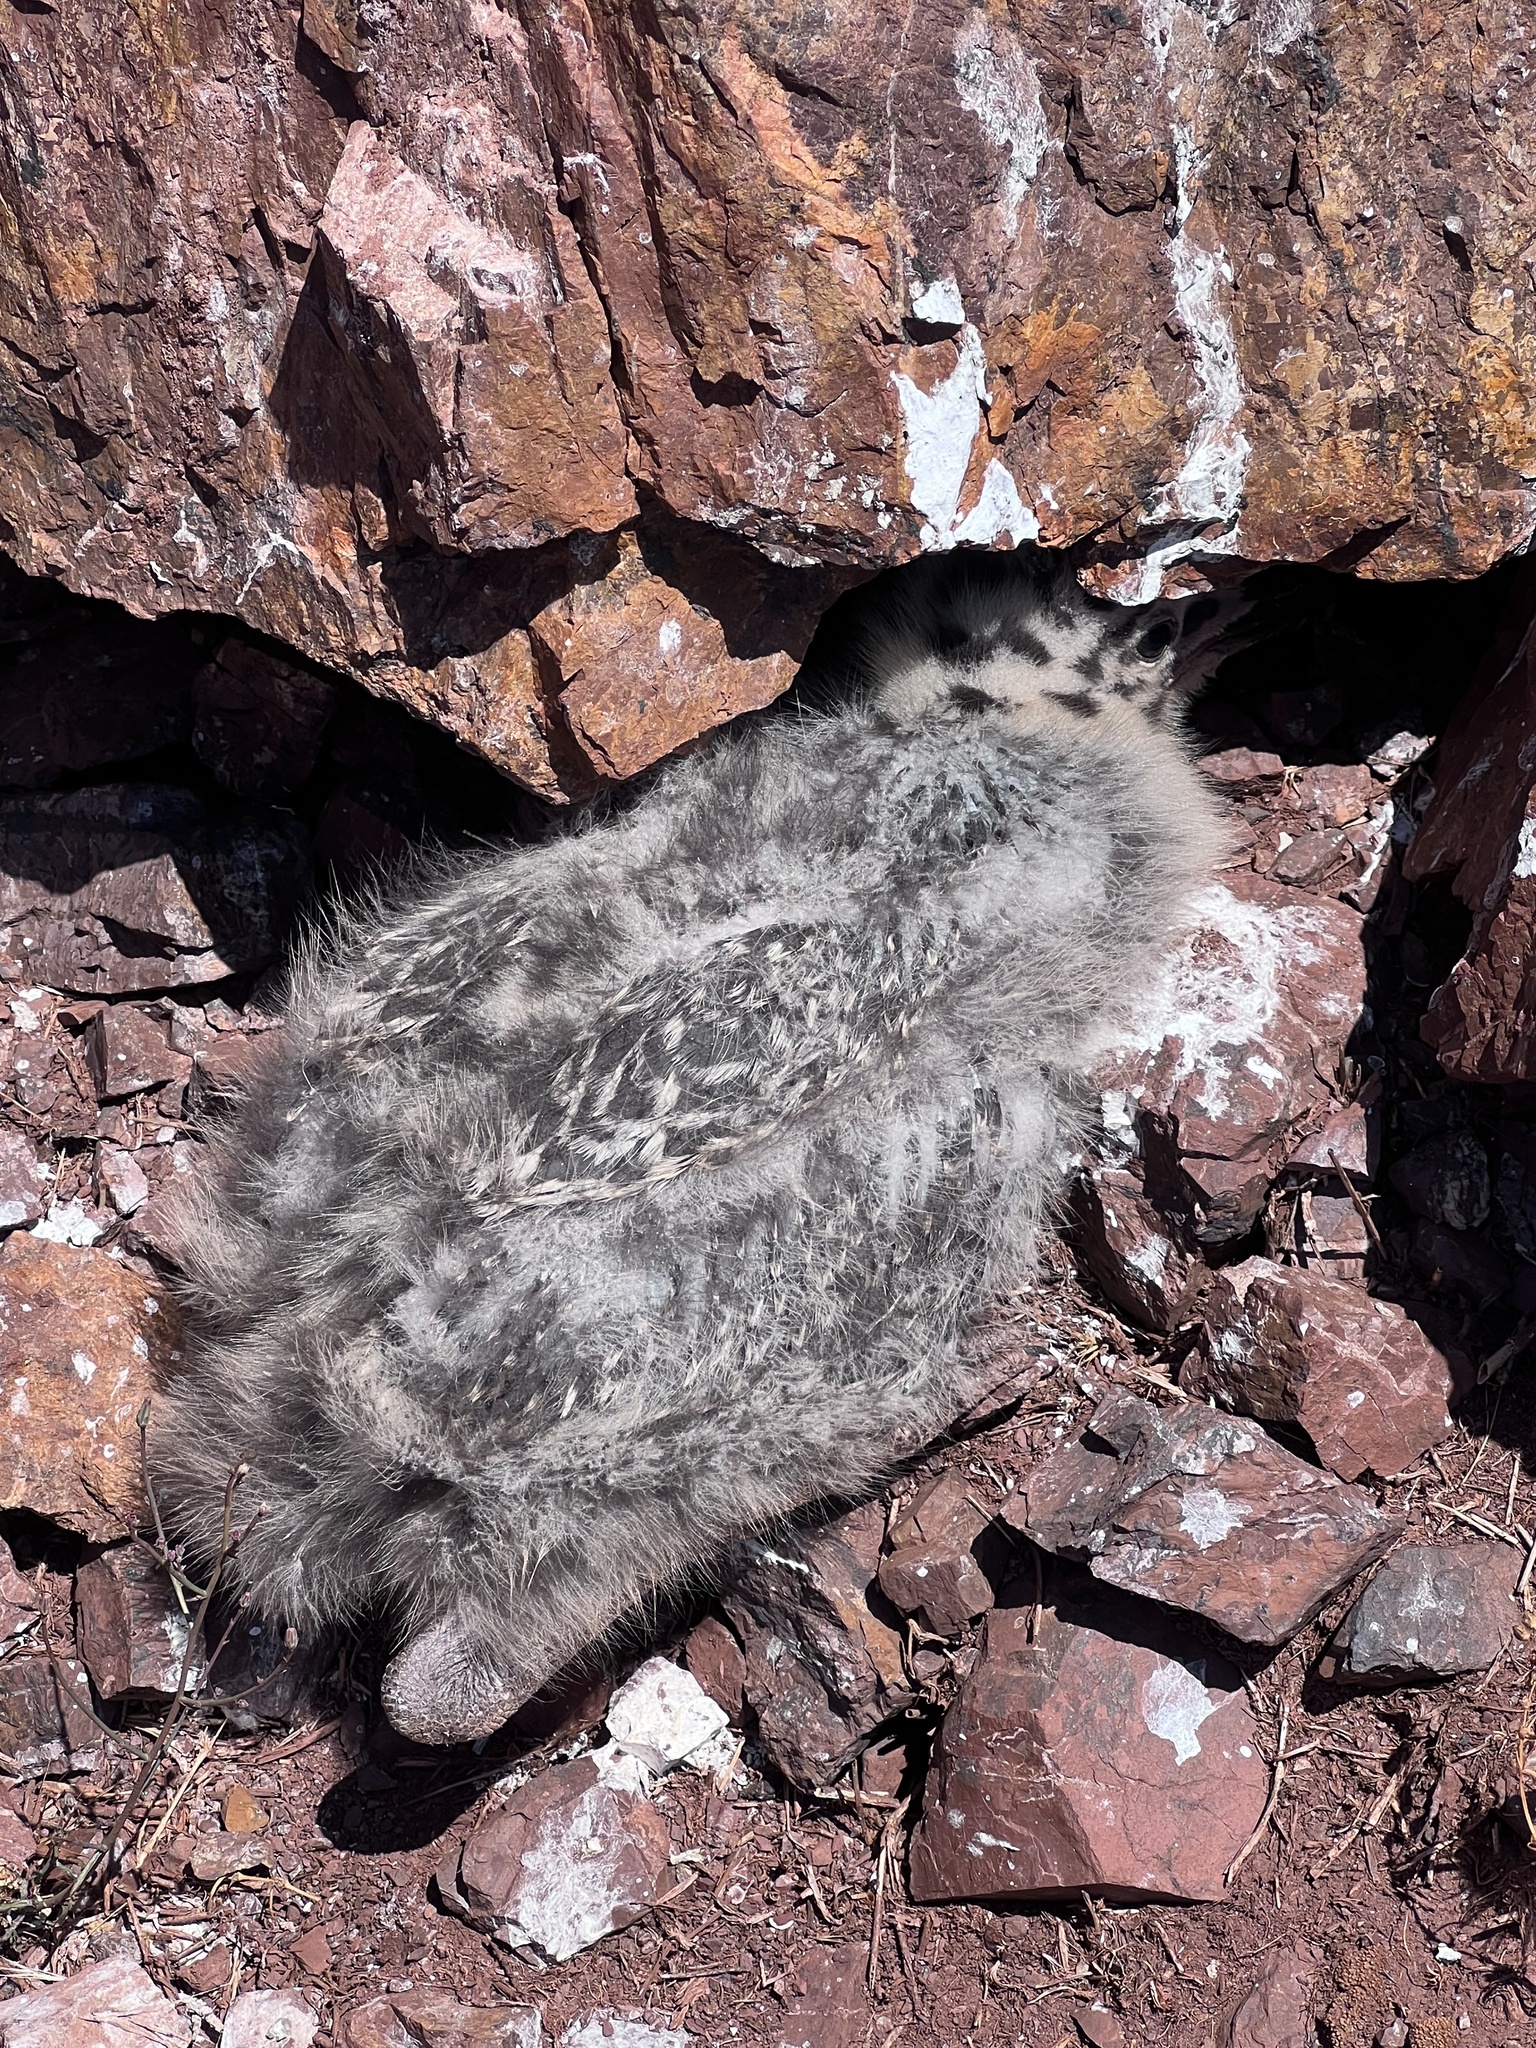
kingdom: Animalia
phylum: Chordata
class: Aves
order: Charadriiformes
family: Laridae
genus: Larus
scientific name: Larus occidentalis
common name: Western gull
